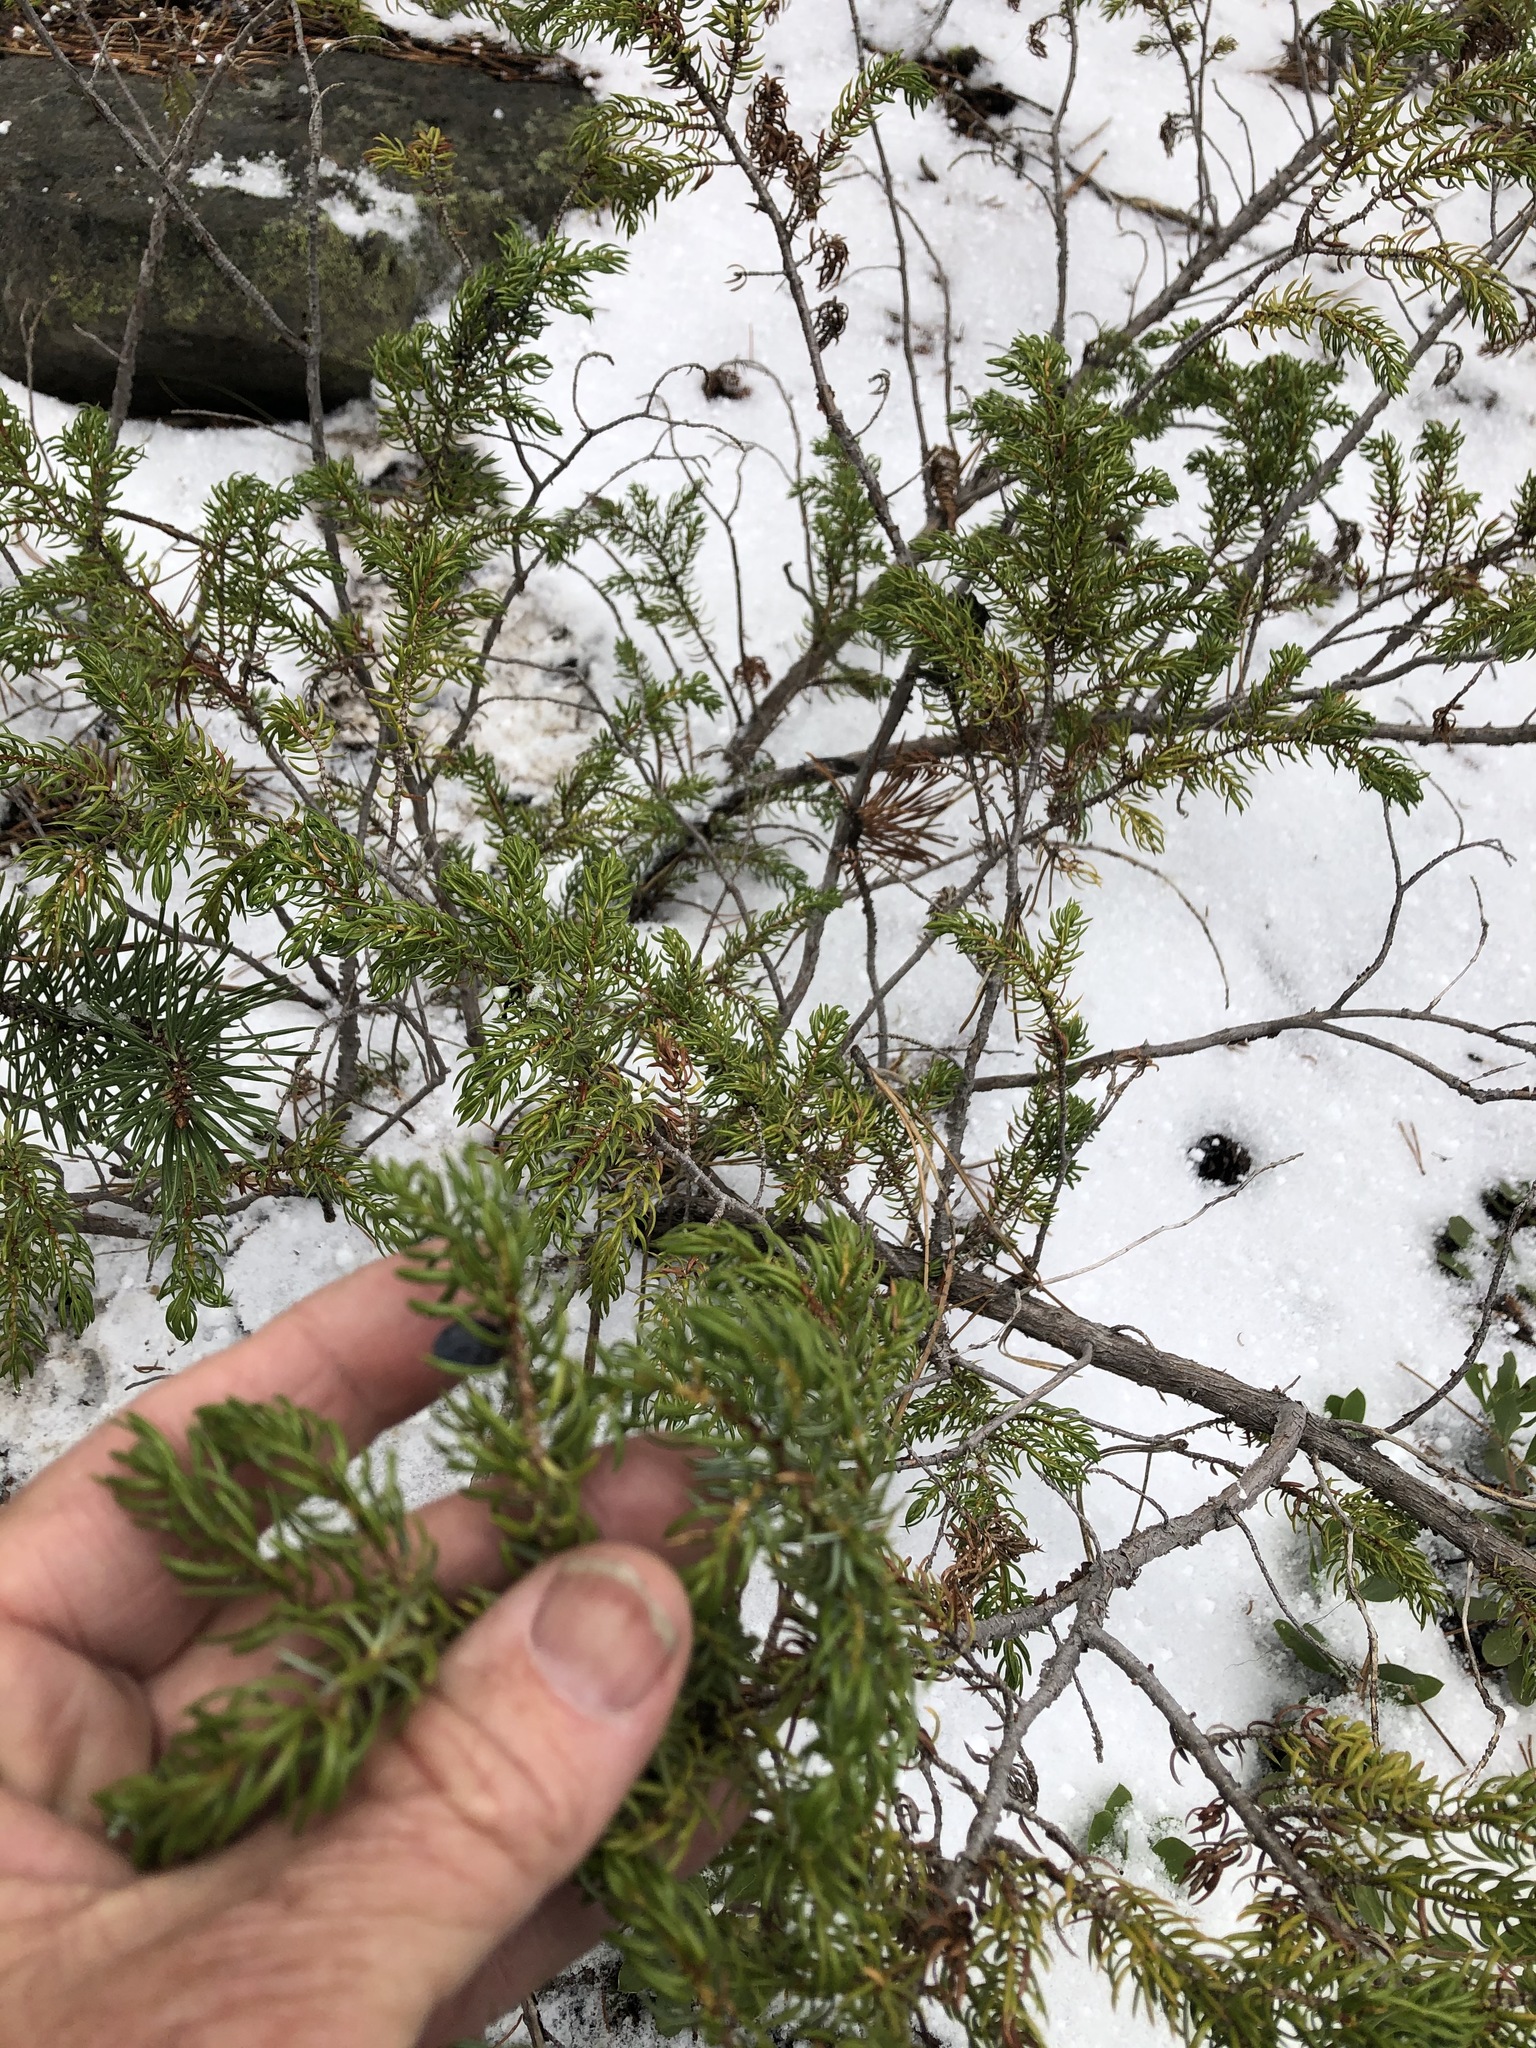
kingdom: Plantae
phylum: Tracheophyta
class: Pinopsida
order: Pinales
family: Cupressaceae
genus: Juniperus
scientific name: Juniperus communis
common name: Common juniper
